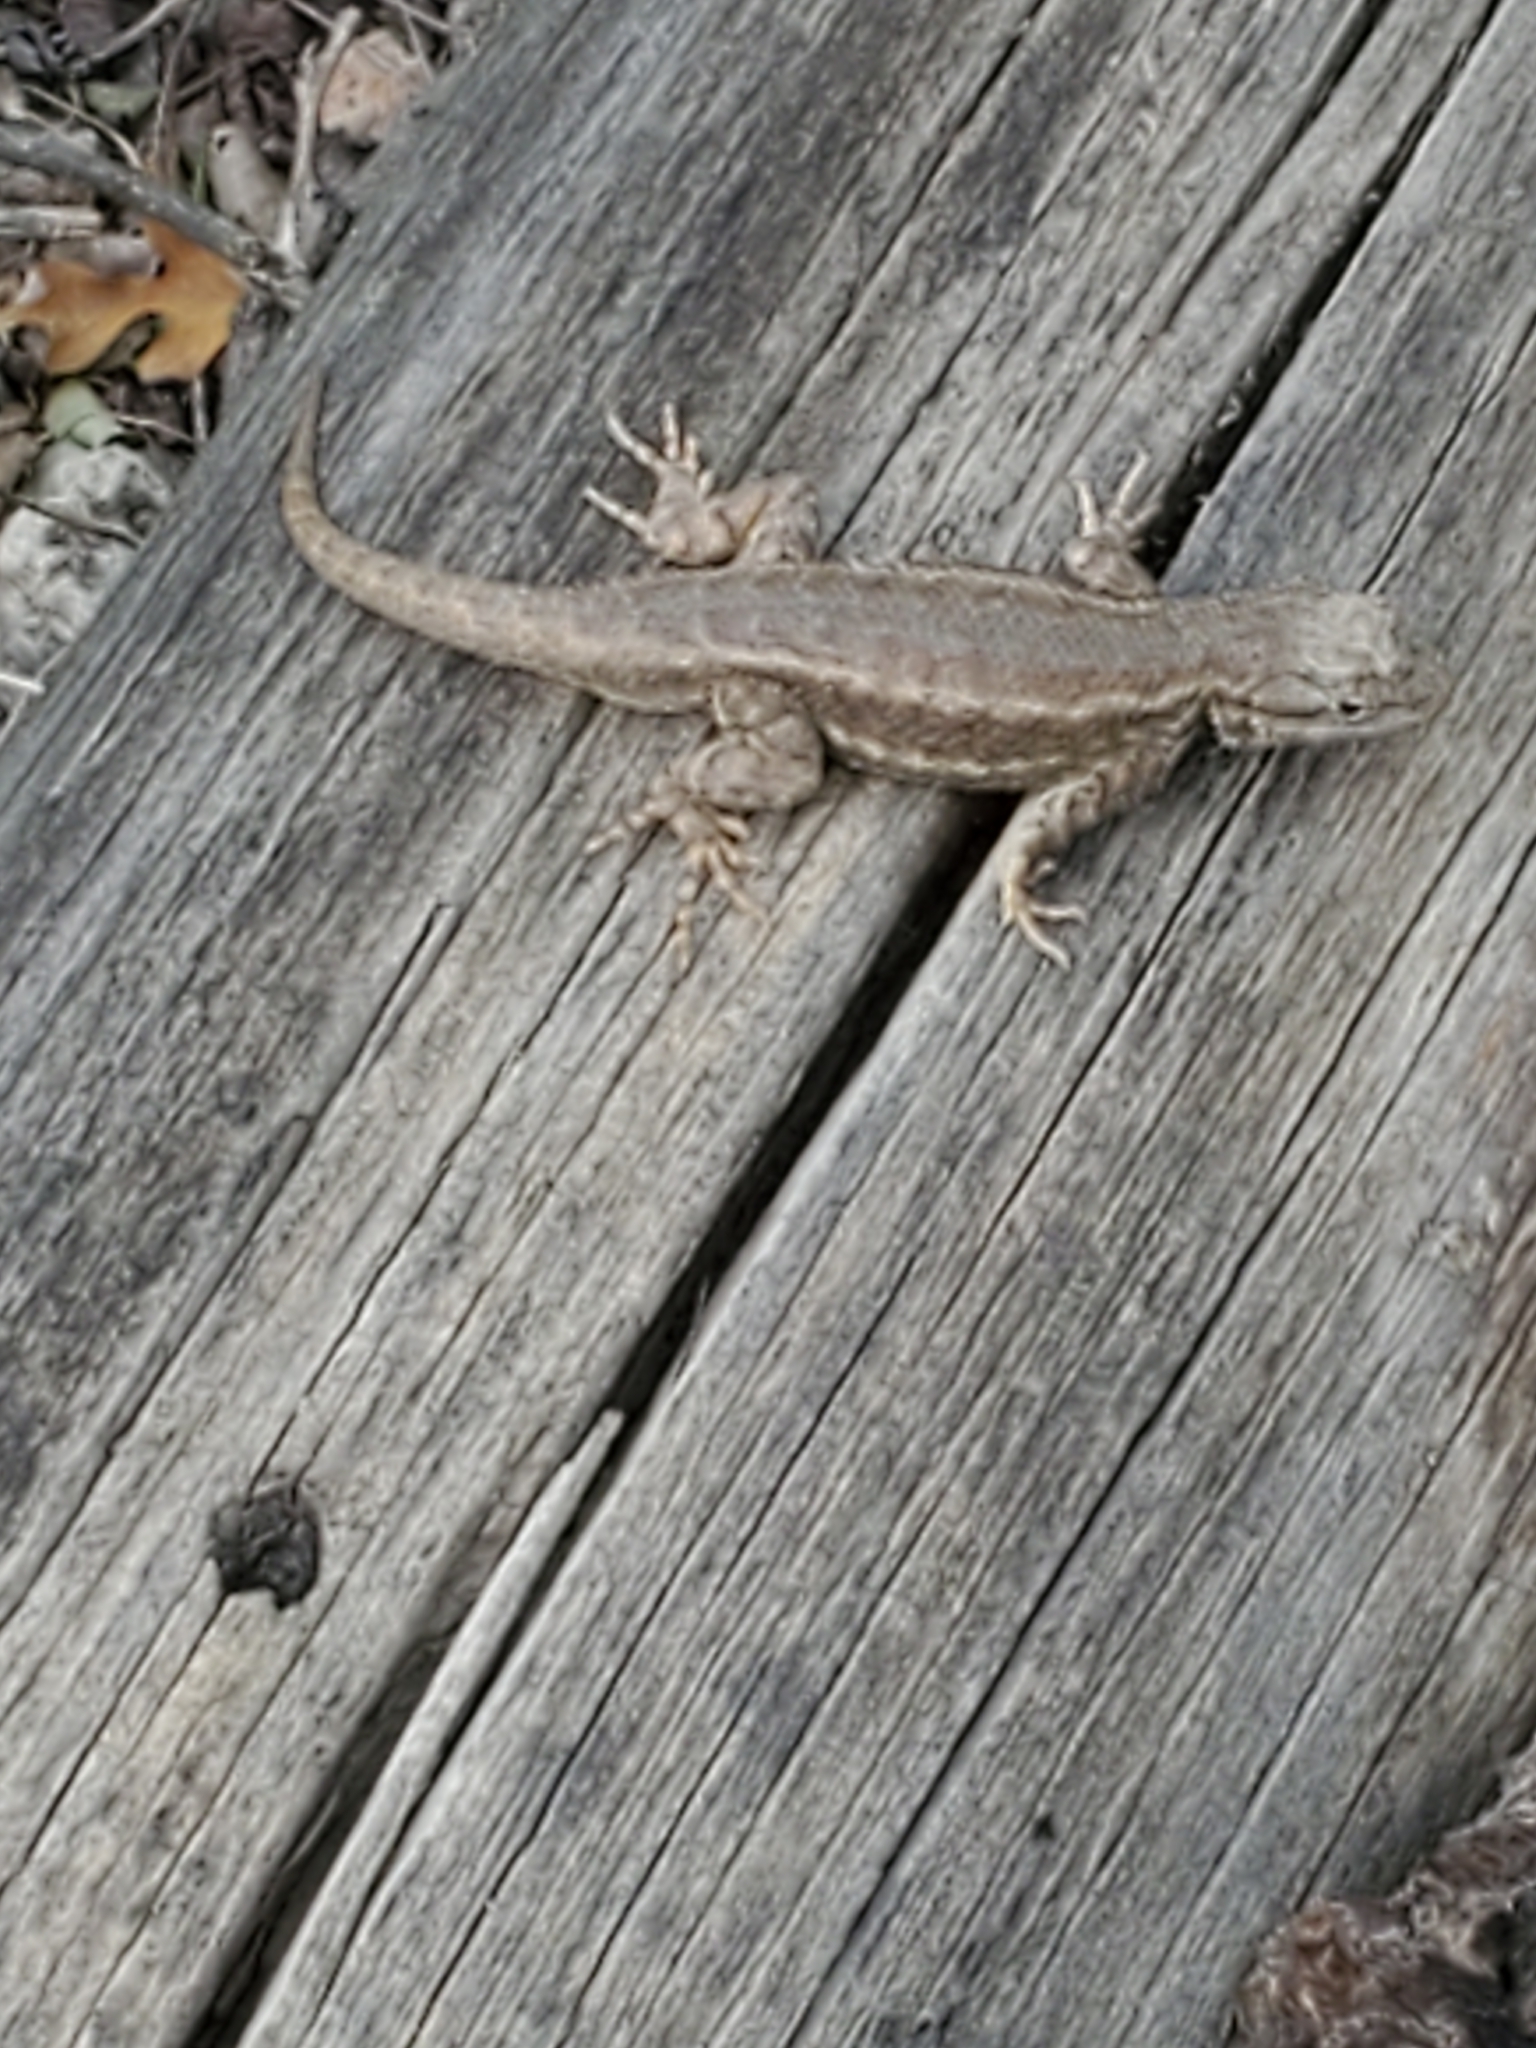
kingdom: Animalia
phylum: Chordata
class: Squamata
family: Phrynosomatidae
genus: Sceloporus
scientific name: Sceloporus
